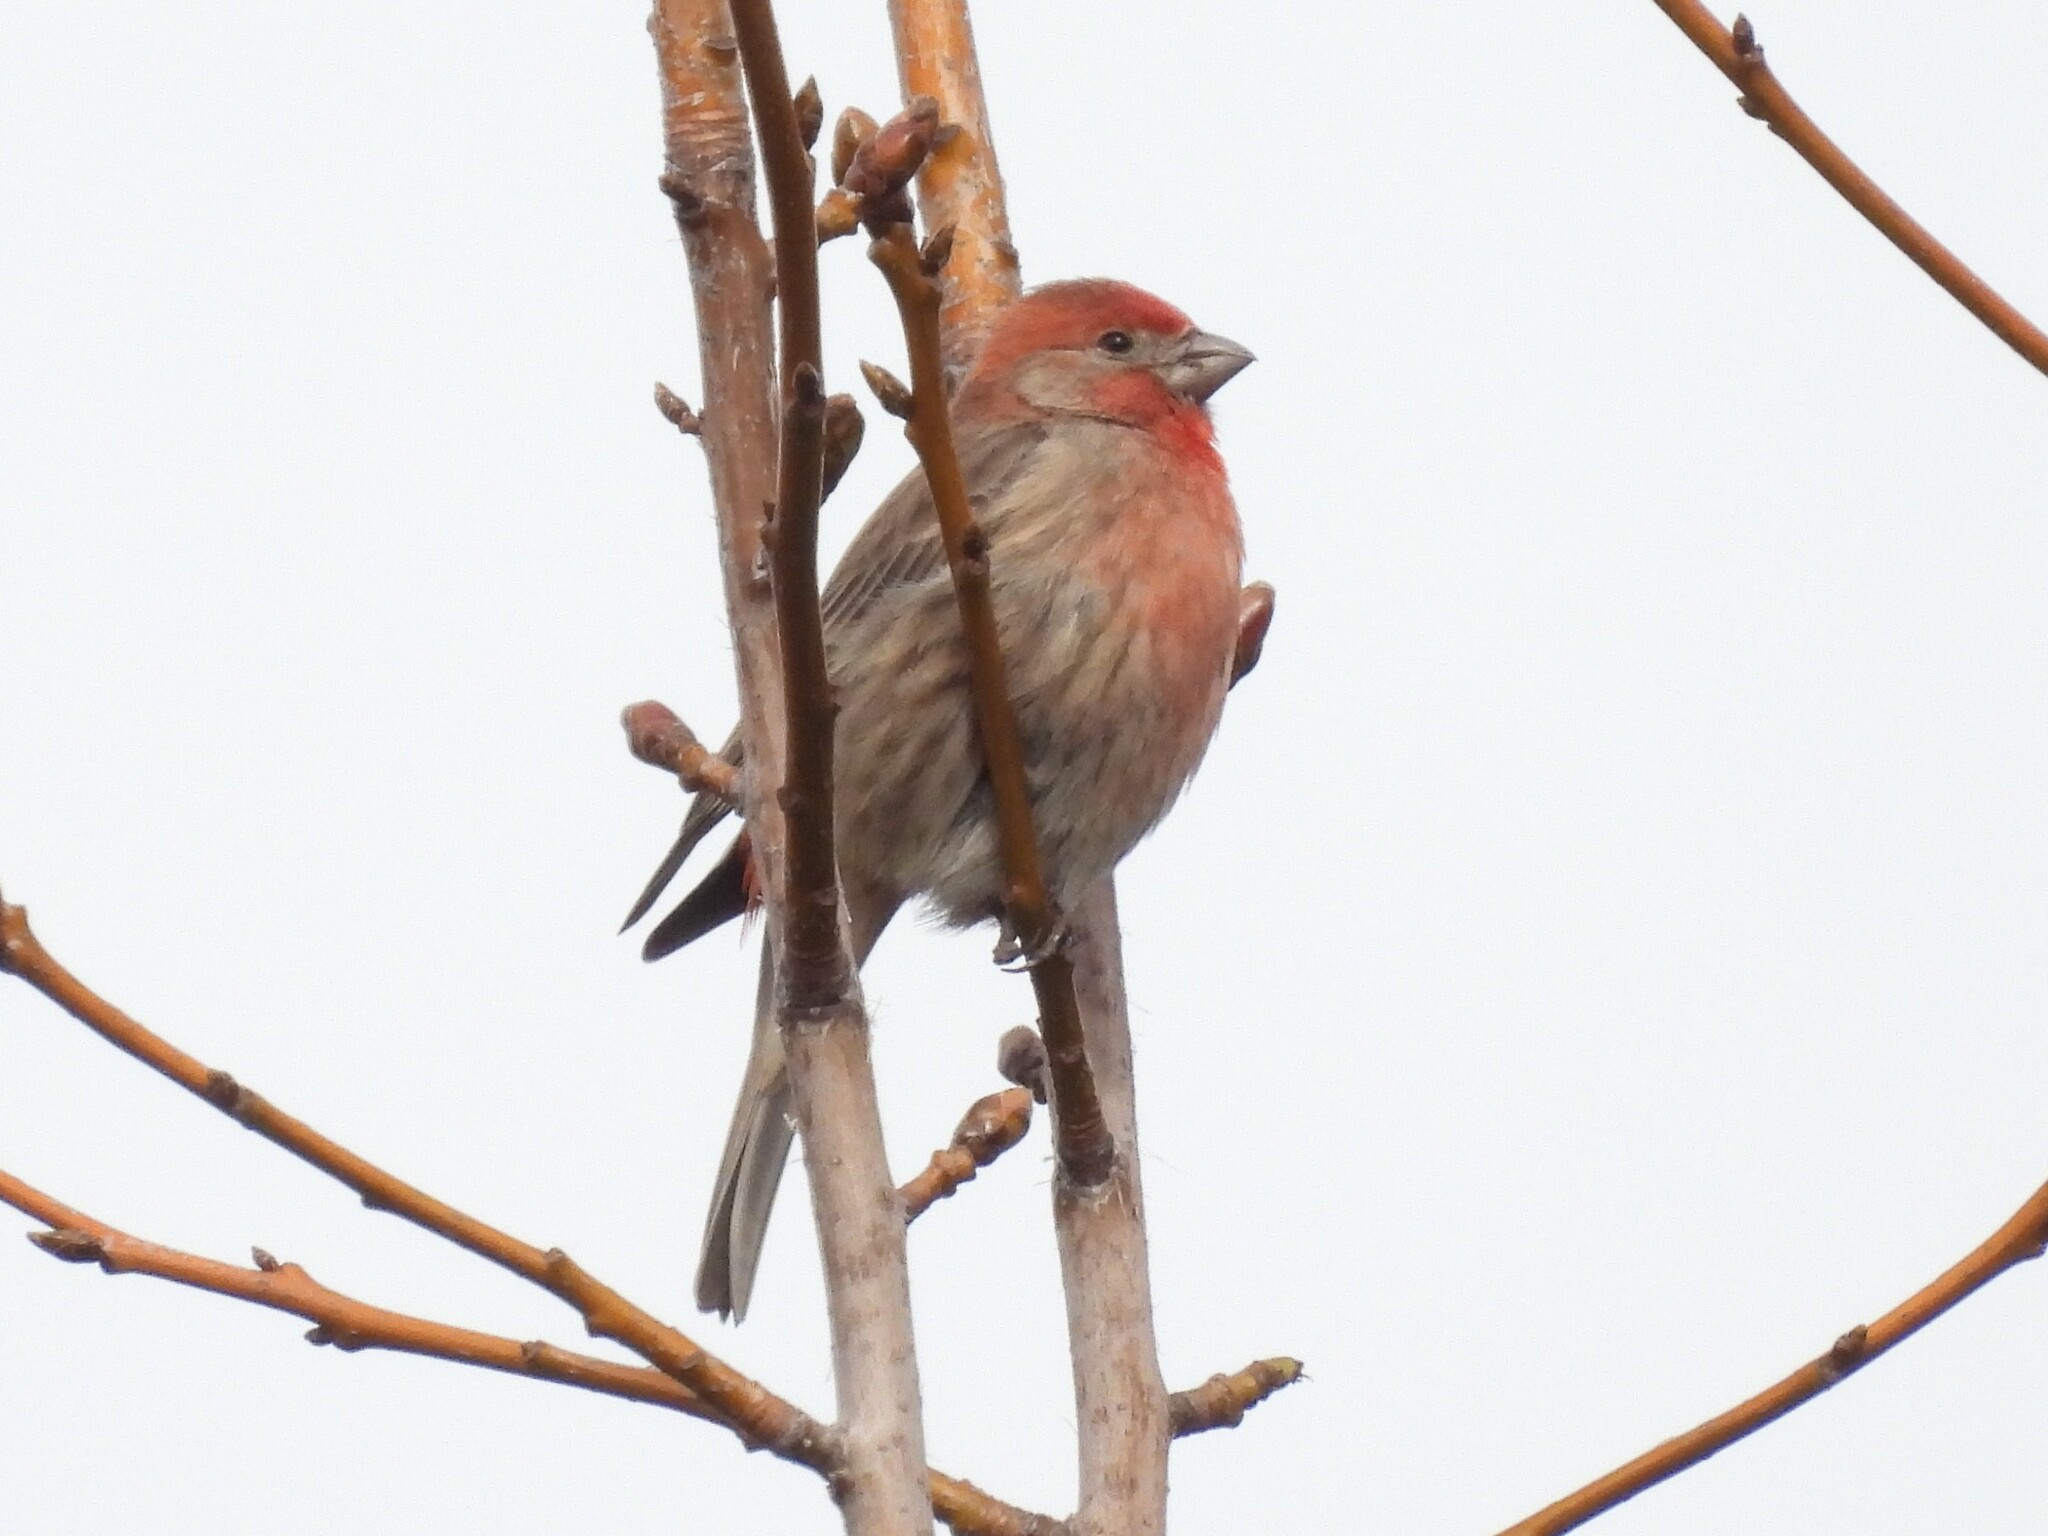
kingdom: Animalia
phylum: Chordata
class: Aves
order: Passeriformes
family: Fringillidae
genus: Haemorhous
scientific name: Haemorhous mexicanus
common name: House finch
